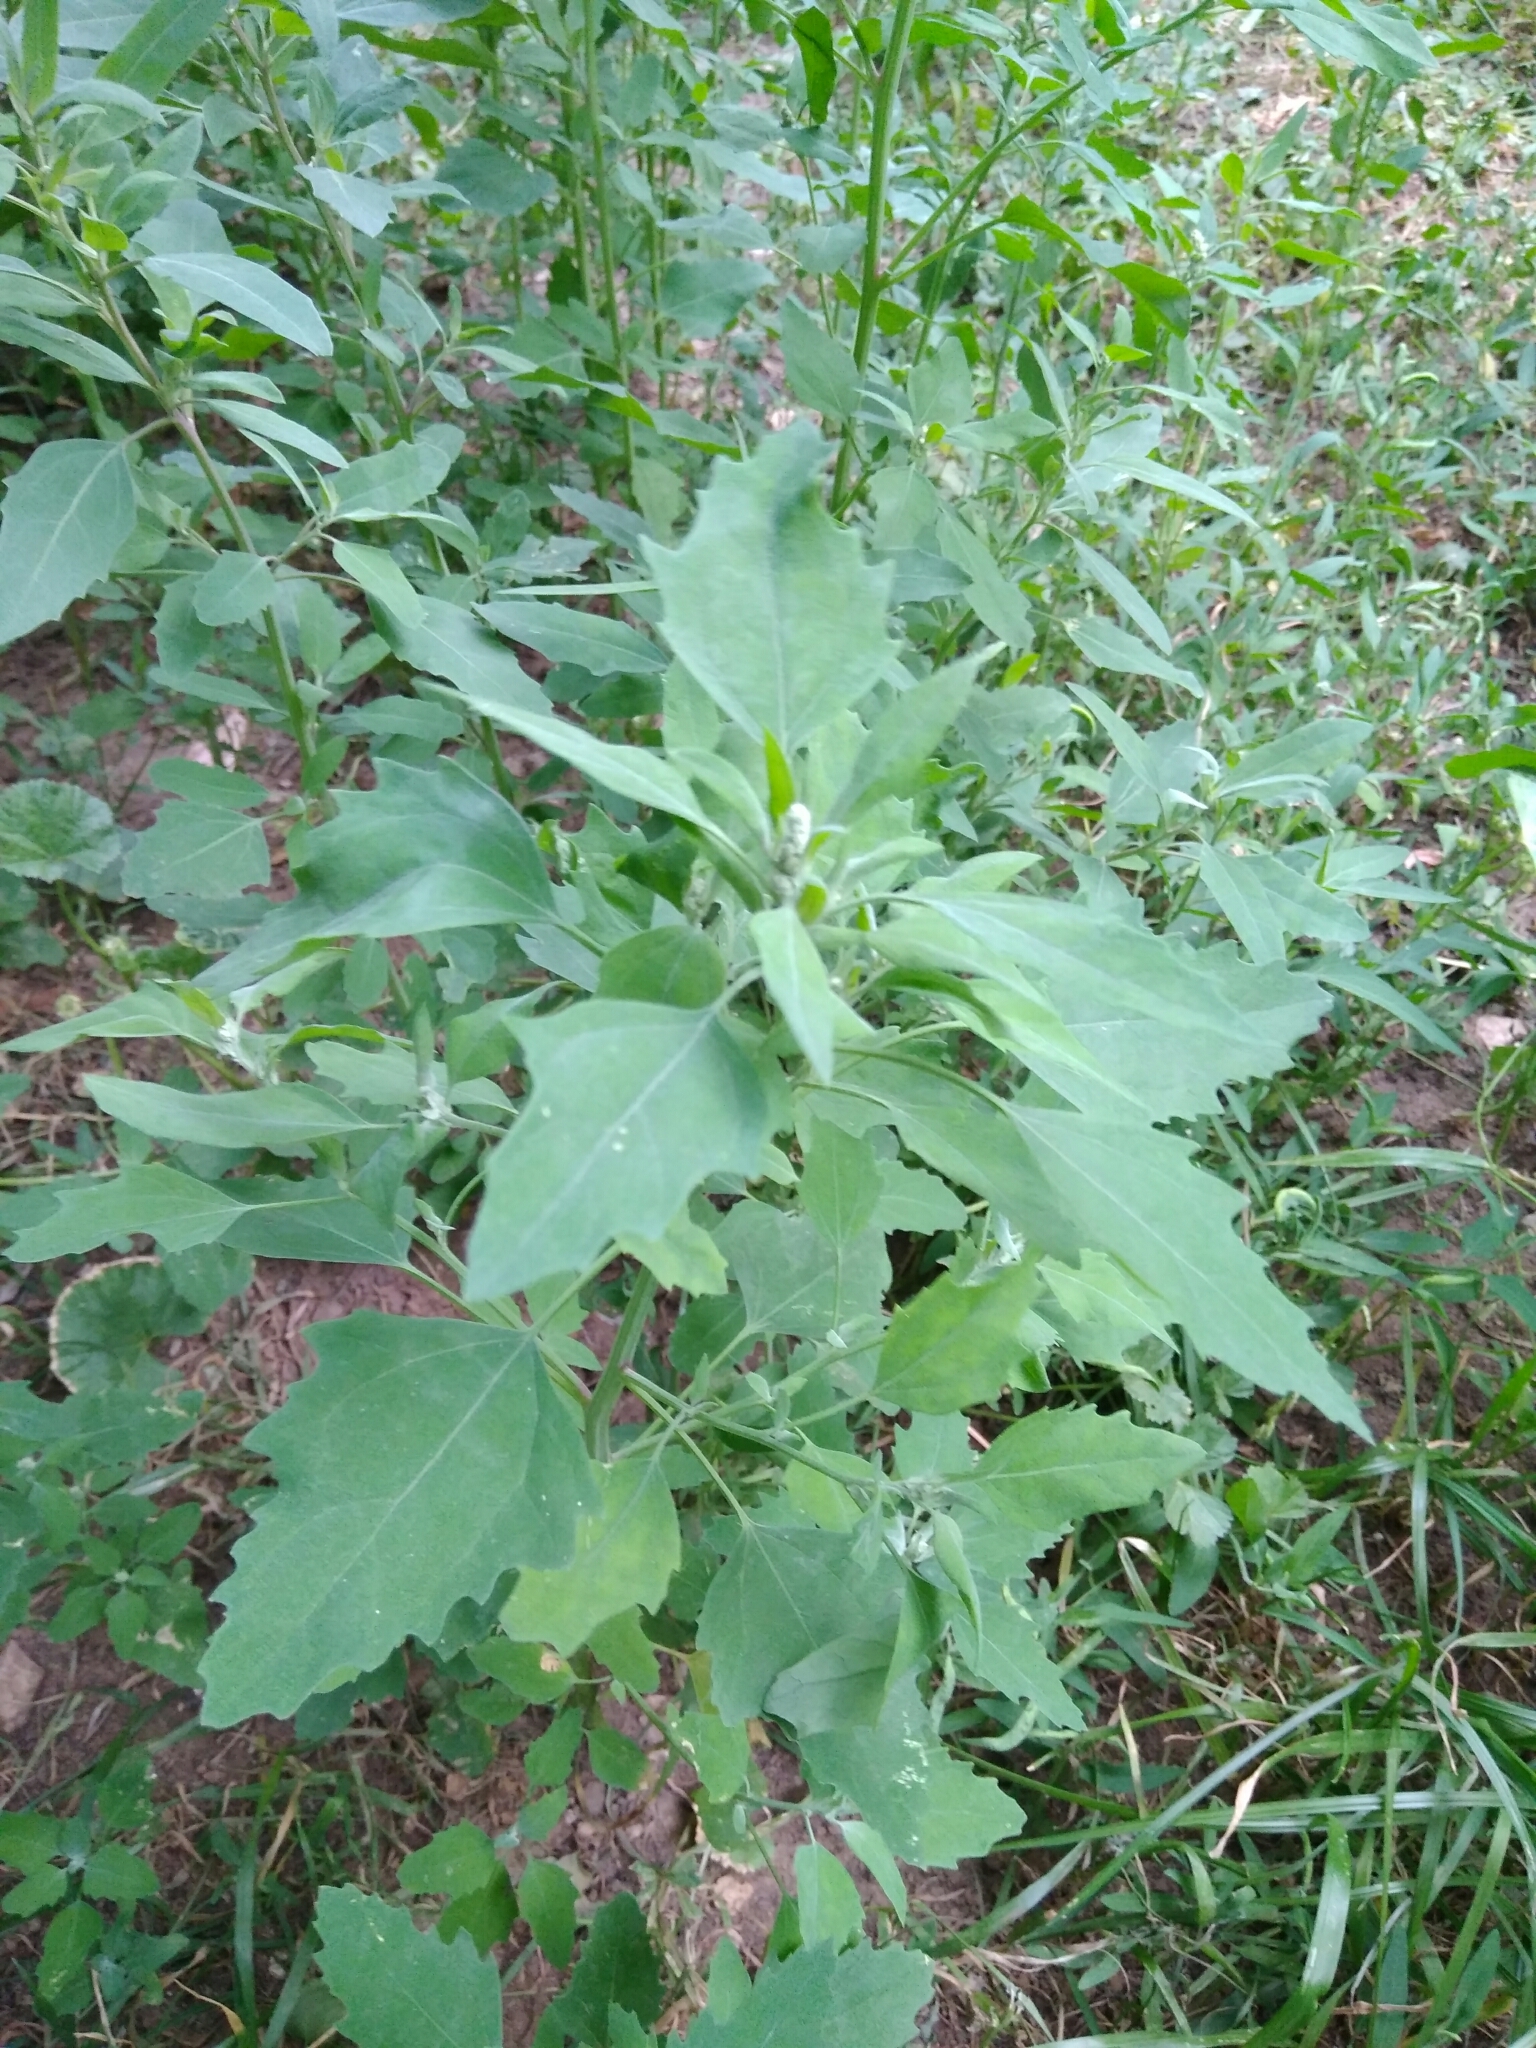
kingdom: Plantae
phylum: Tracheophyta
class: Magnoliopsida
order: Caryophyllales
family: Amaranthaceae
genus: Chenopodium
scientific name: Chenopodium album
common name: Fat-hen
